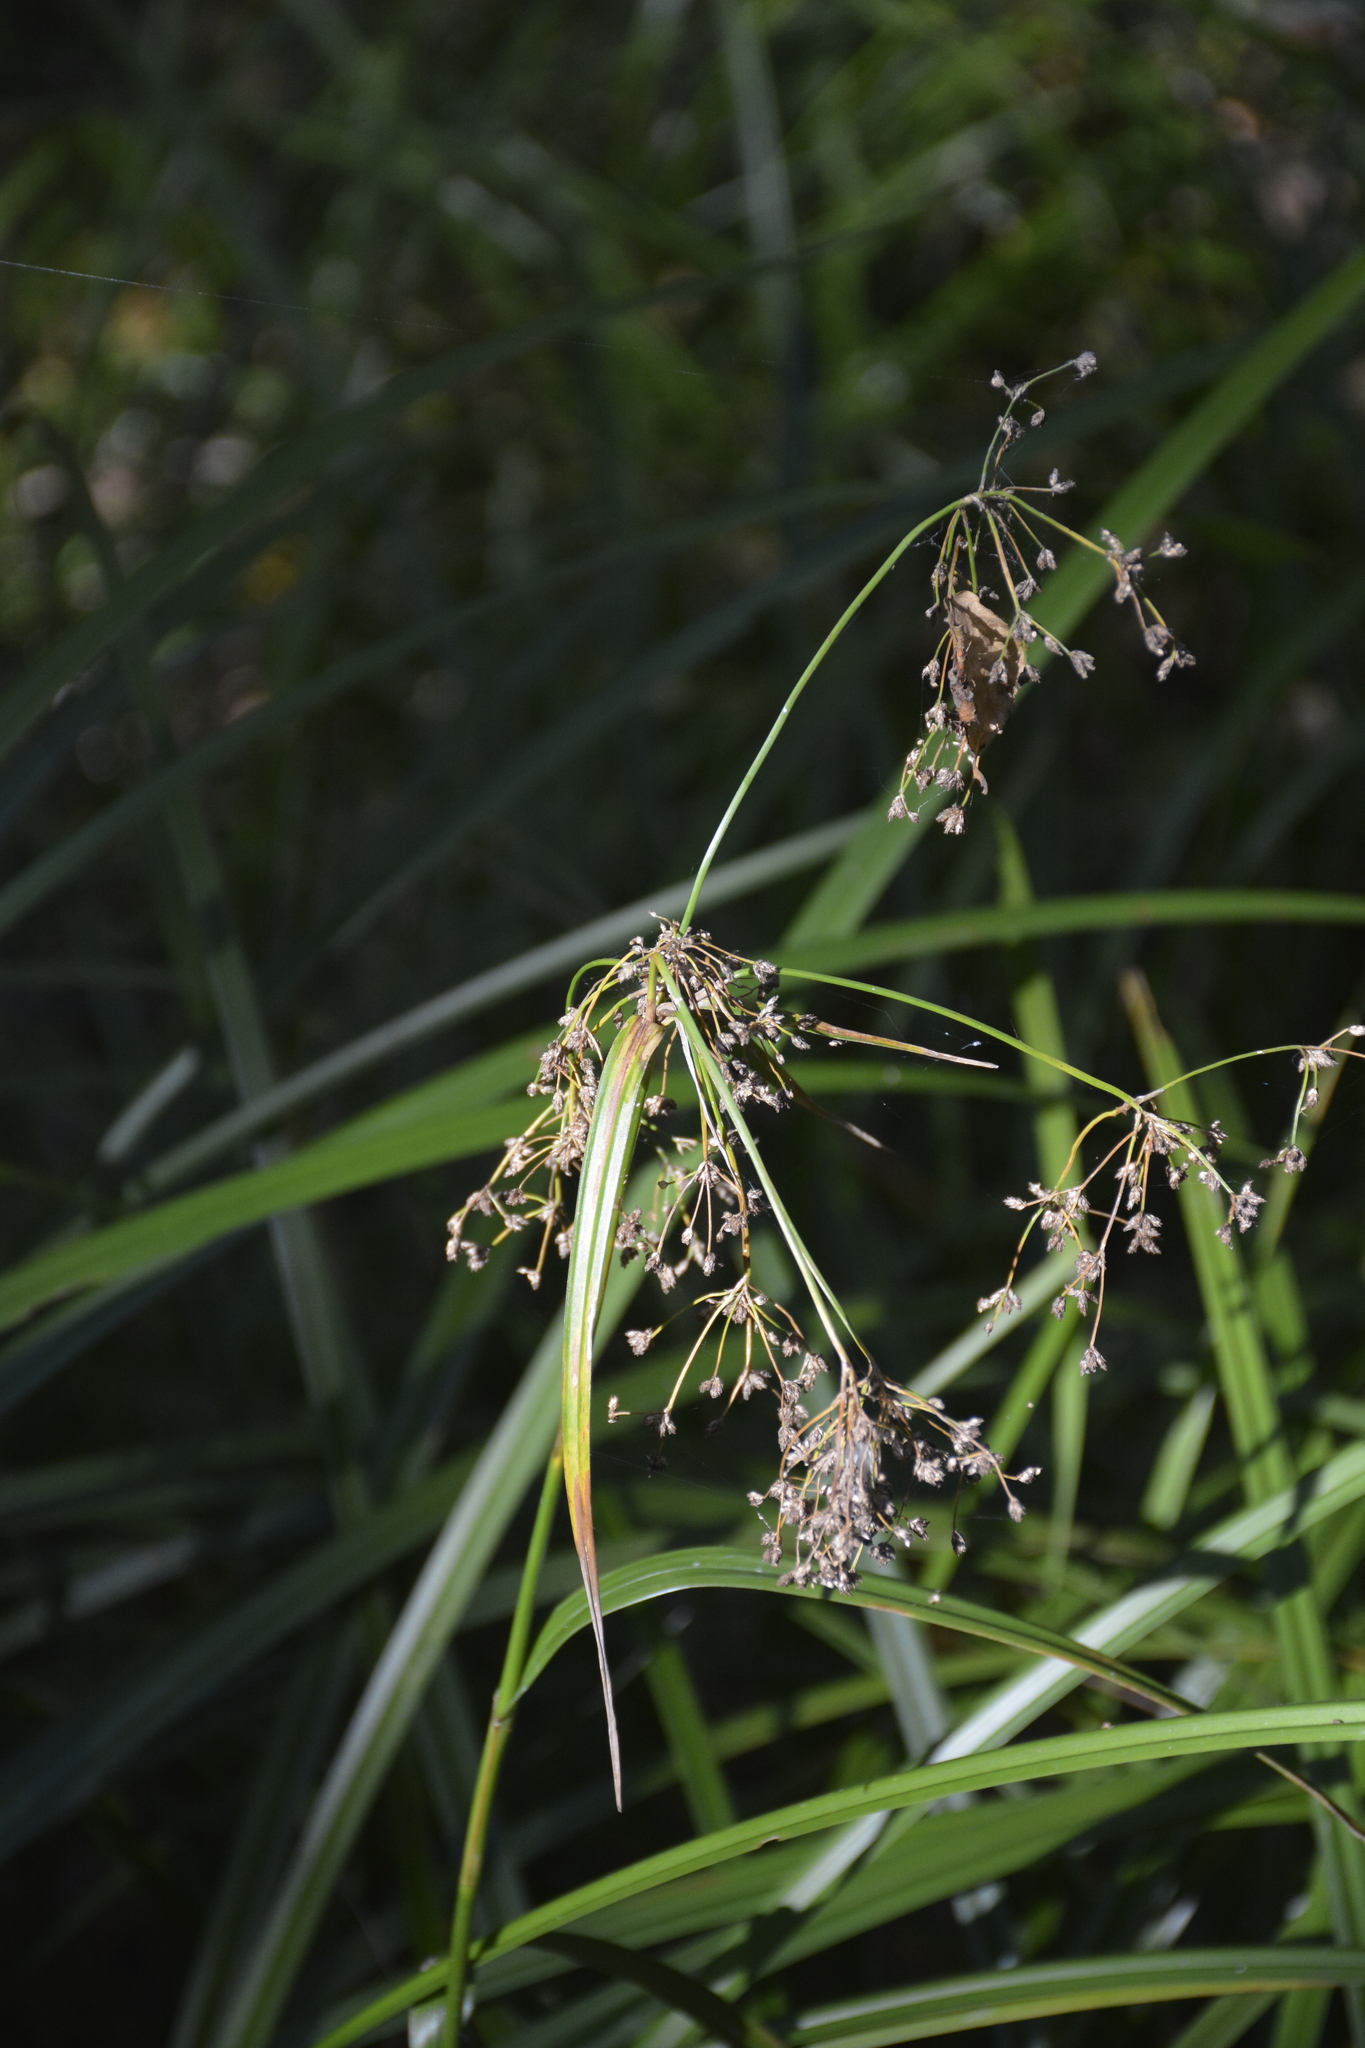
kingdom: Plantae
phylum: Tracheophyta
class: Liliopsida
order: Poales
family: Cyperaceae
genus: Scirpus
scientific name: Scirpus sylvaticus
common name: Wood club-rush
